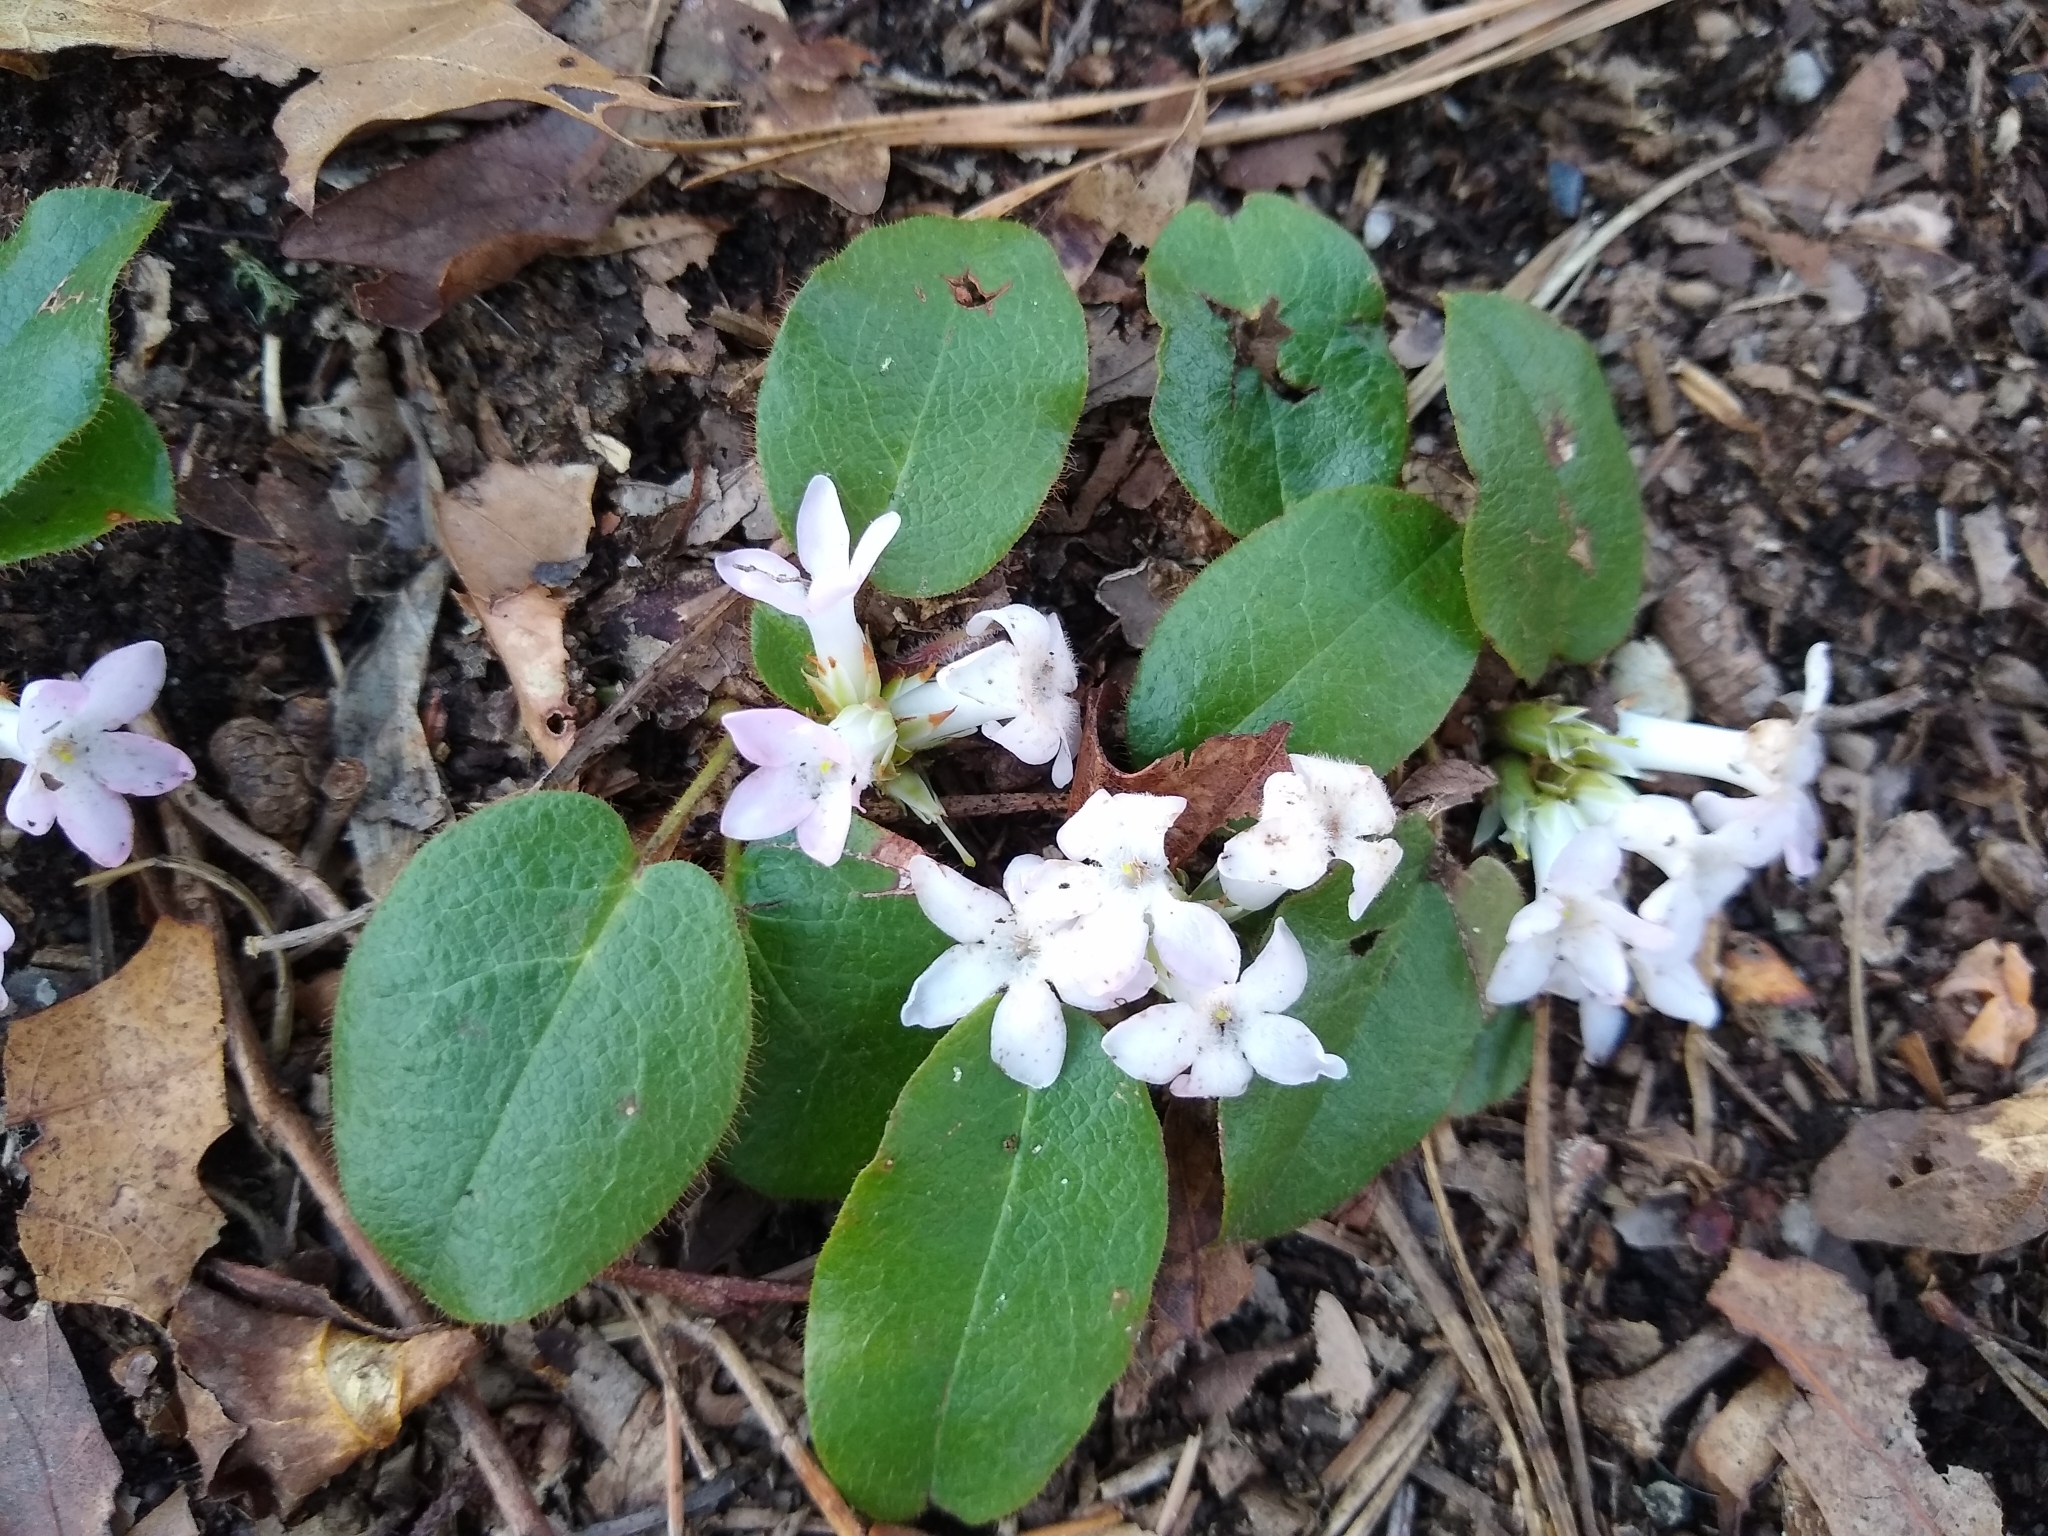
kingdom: Plantae
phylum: Tracheophyta
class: Magnoliopsida
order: Ericales
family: Ericaceae
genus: Epigaea
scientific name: Epigaea repens
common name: Gravelroot
